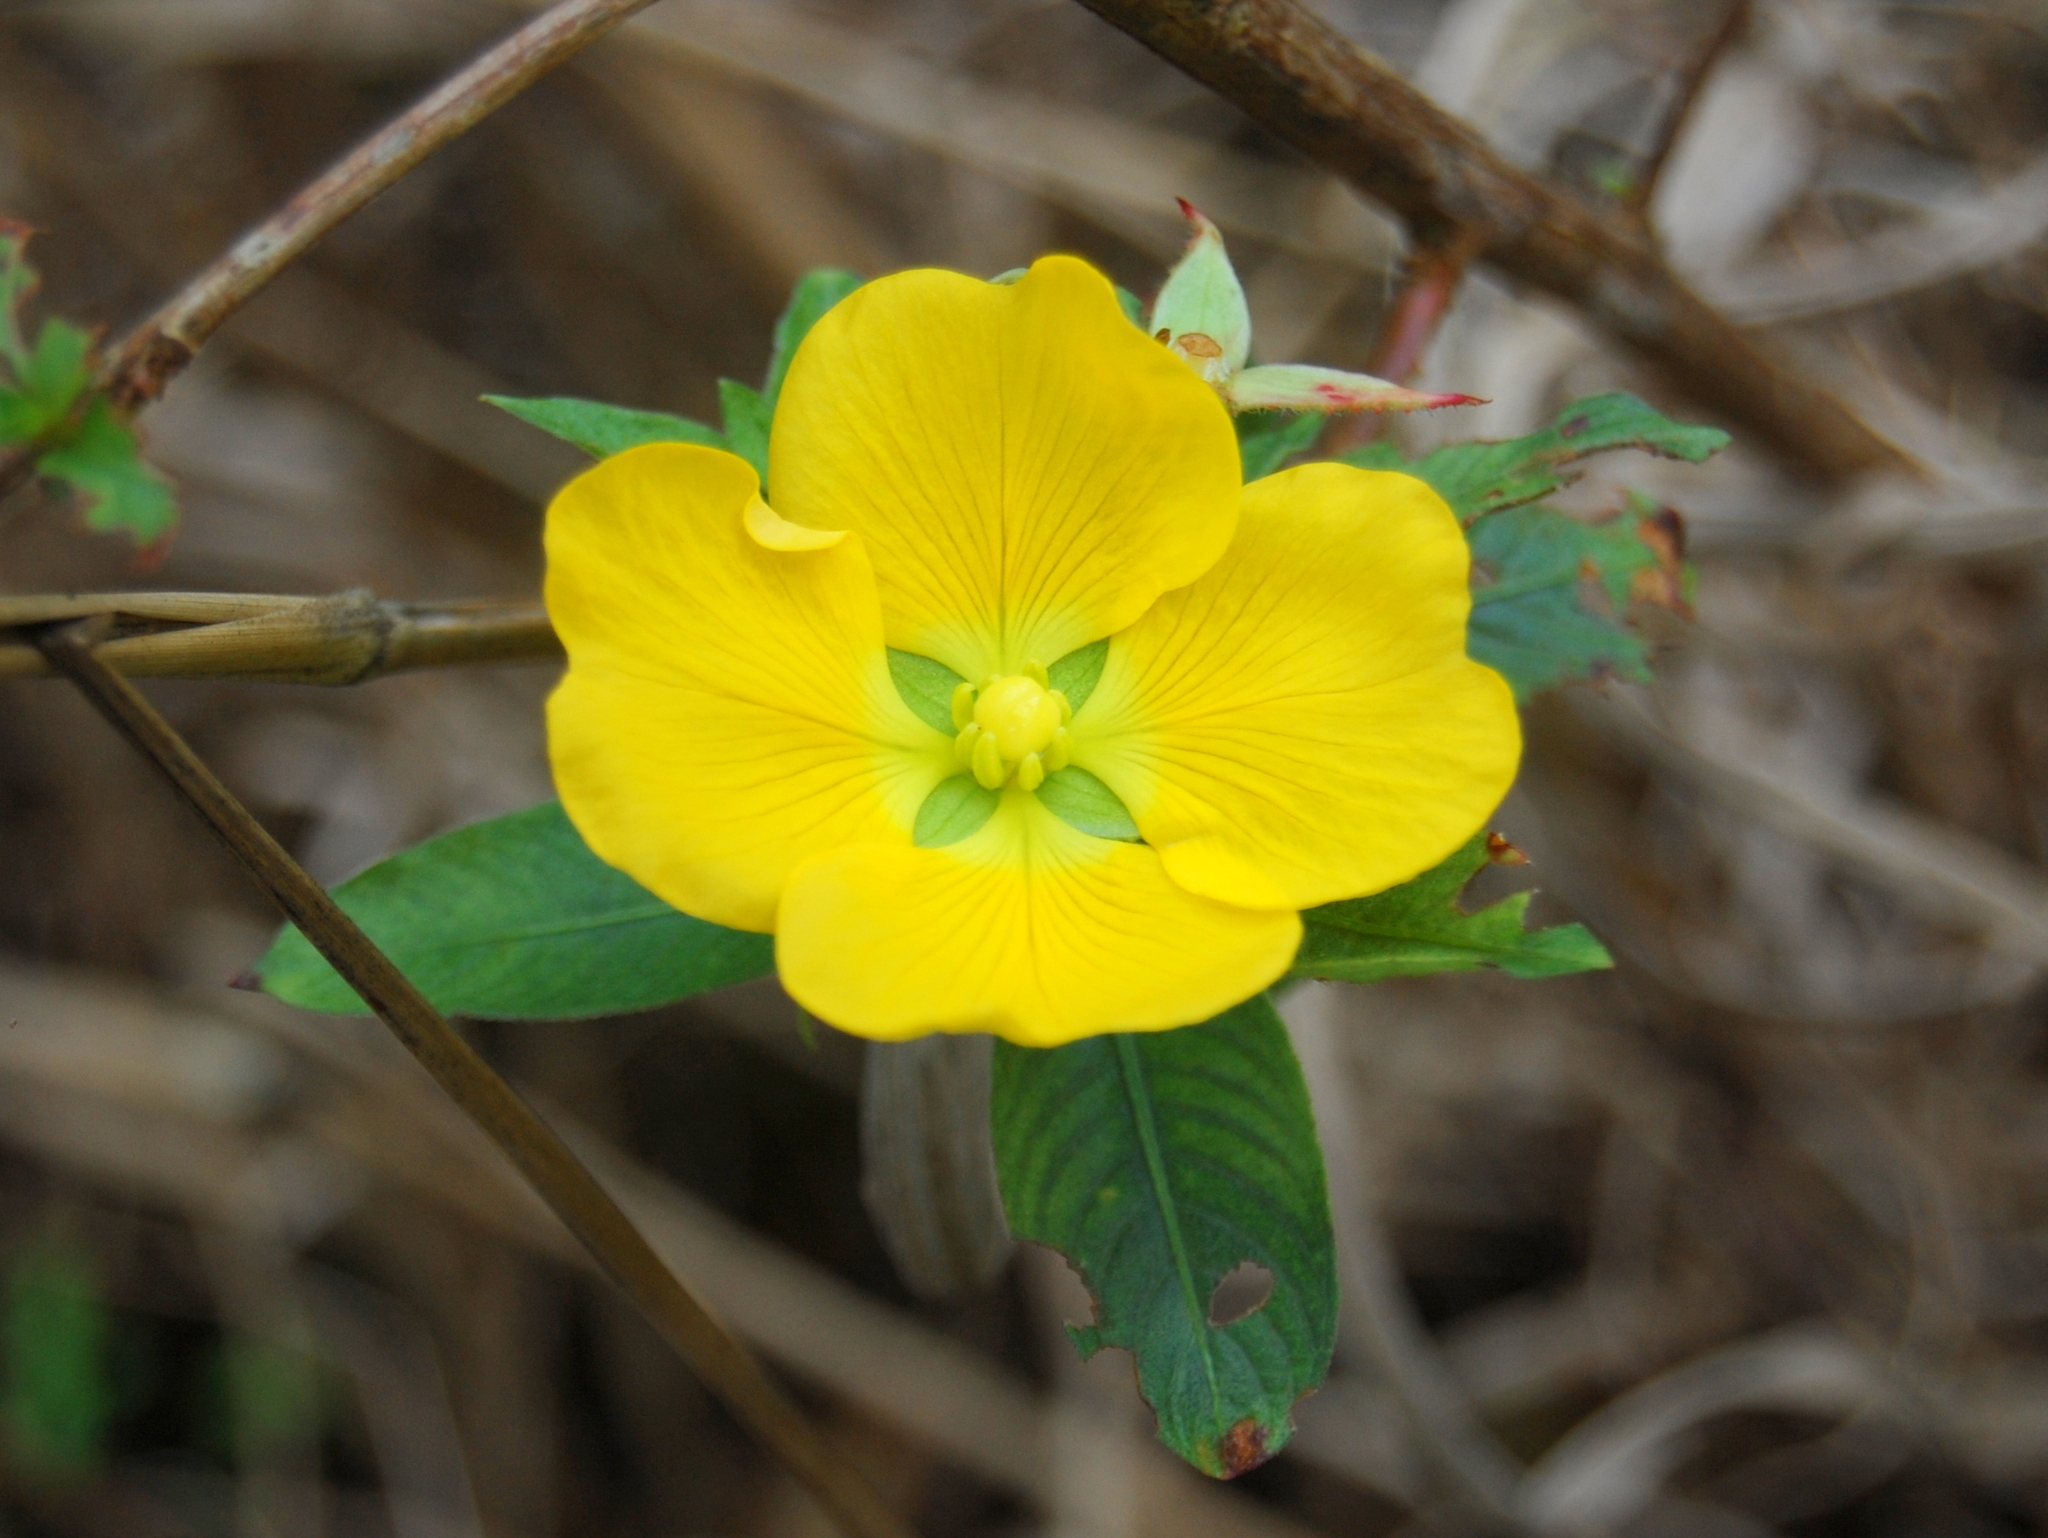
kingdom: Plantae
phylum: Tracheophyta
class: Magnoliopsida
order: Myrtales
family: Onagraceae
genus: Ludwigia
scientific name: Ludwigia peruviana
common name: Peruvian primrose-willow
